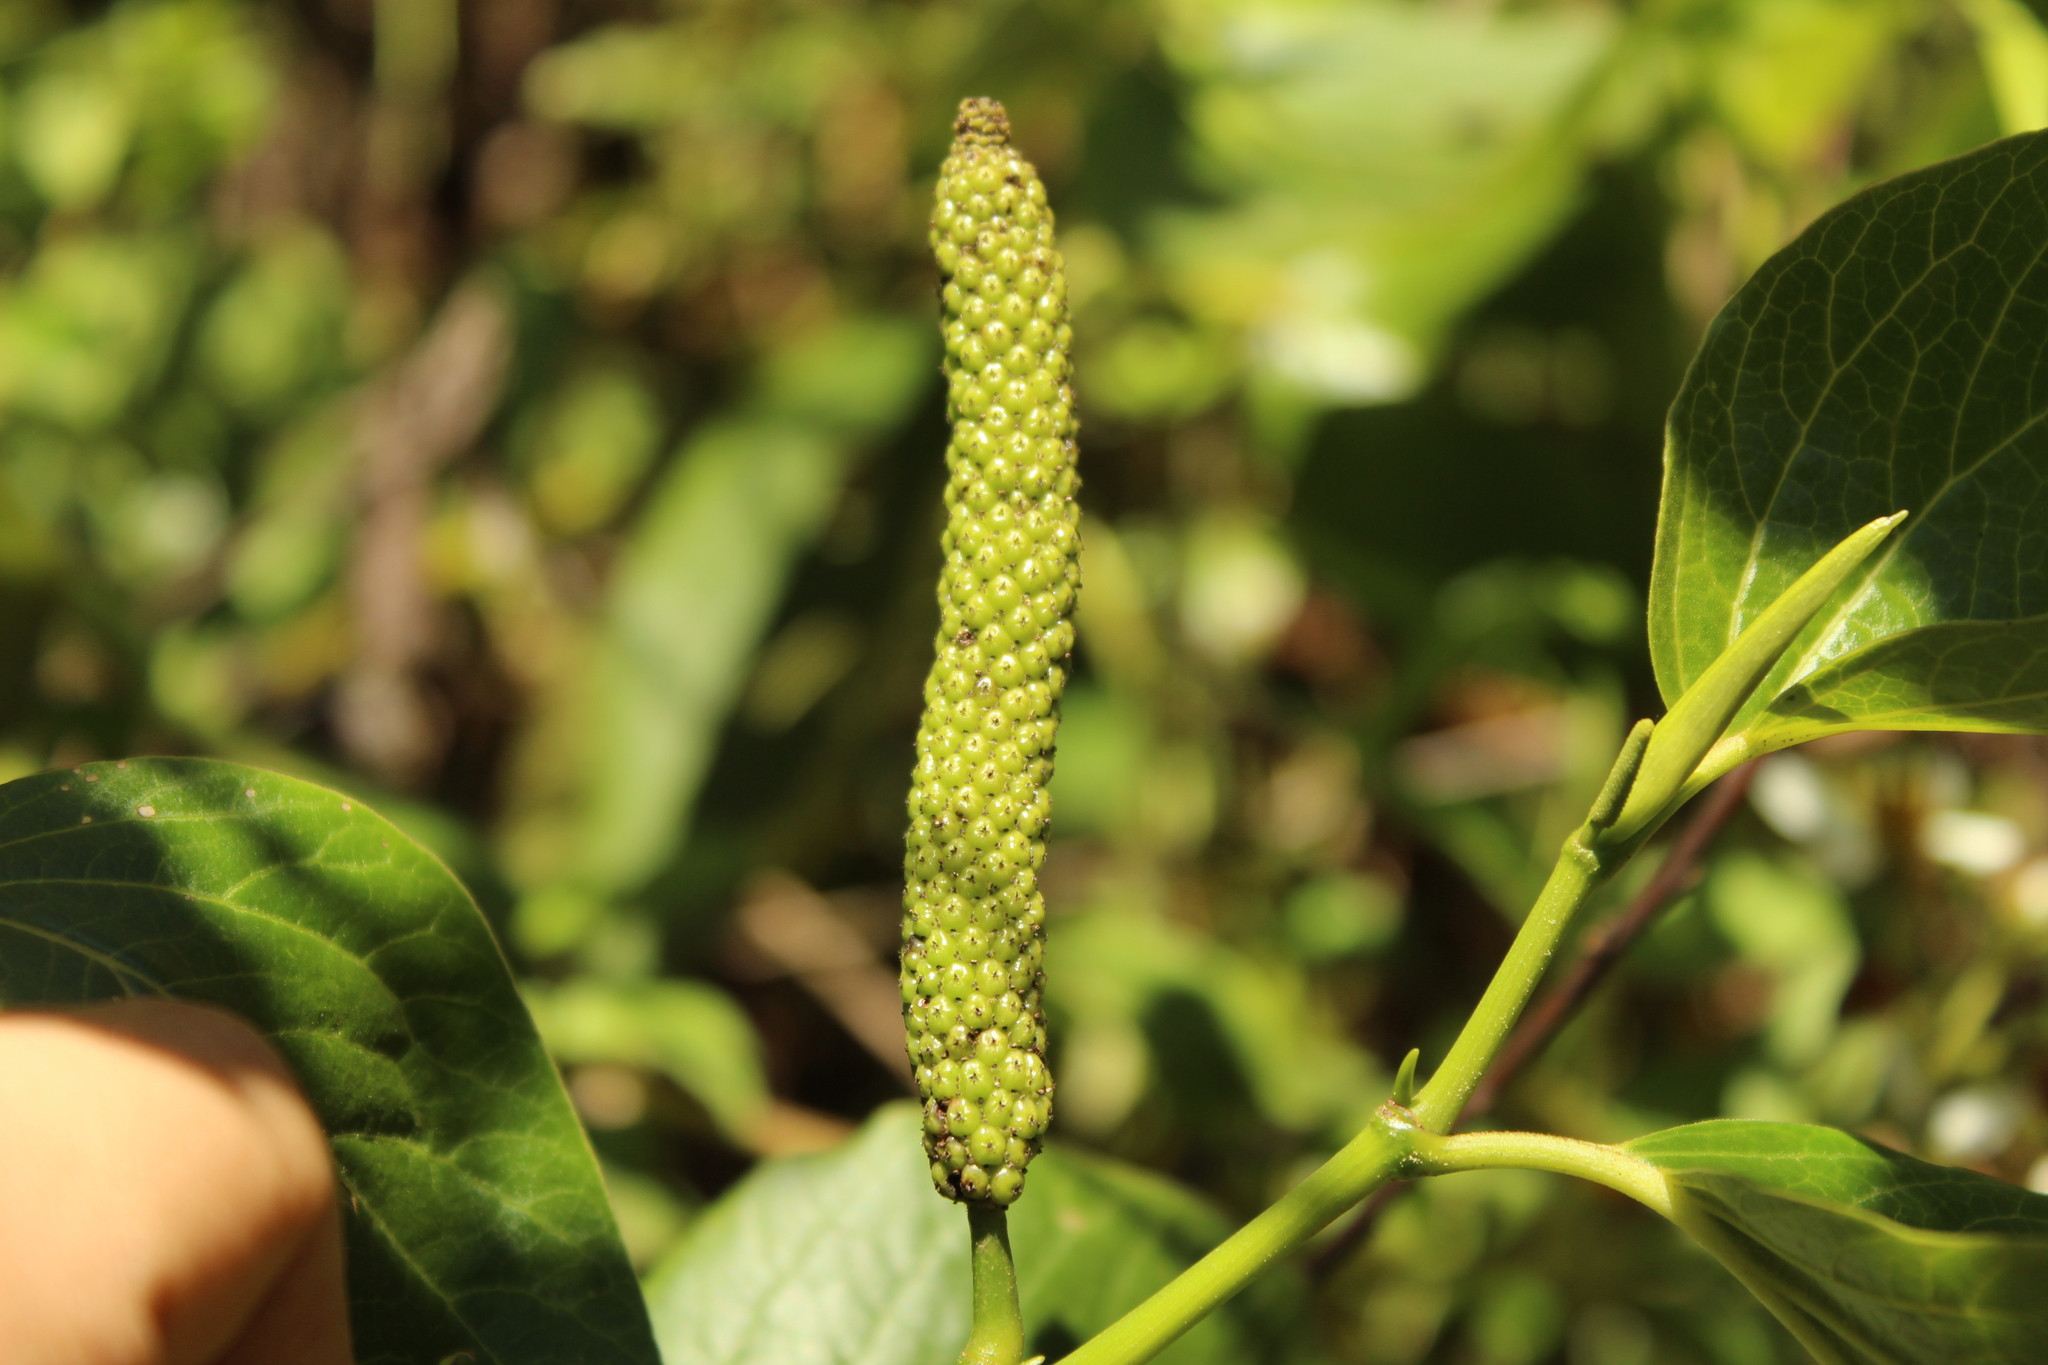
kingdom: Plantae
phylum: Tracheophyta
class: Magnoliopsida
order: Piperales
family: Piperaceae
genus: Piper
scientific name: Piper barbatum
